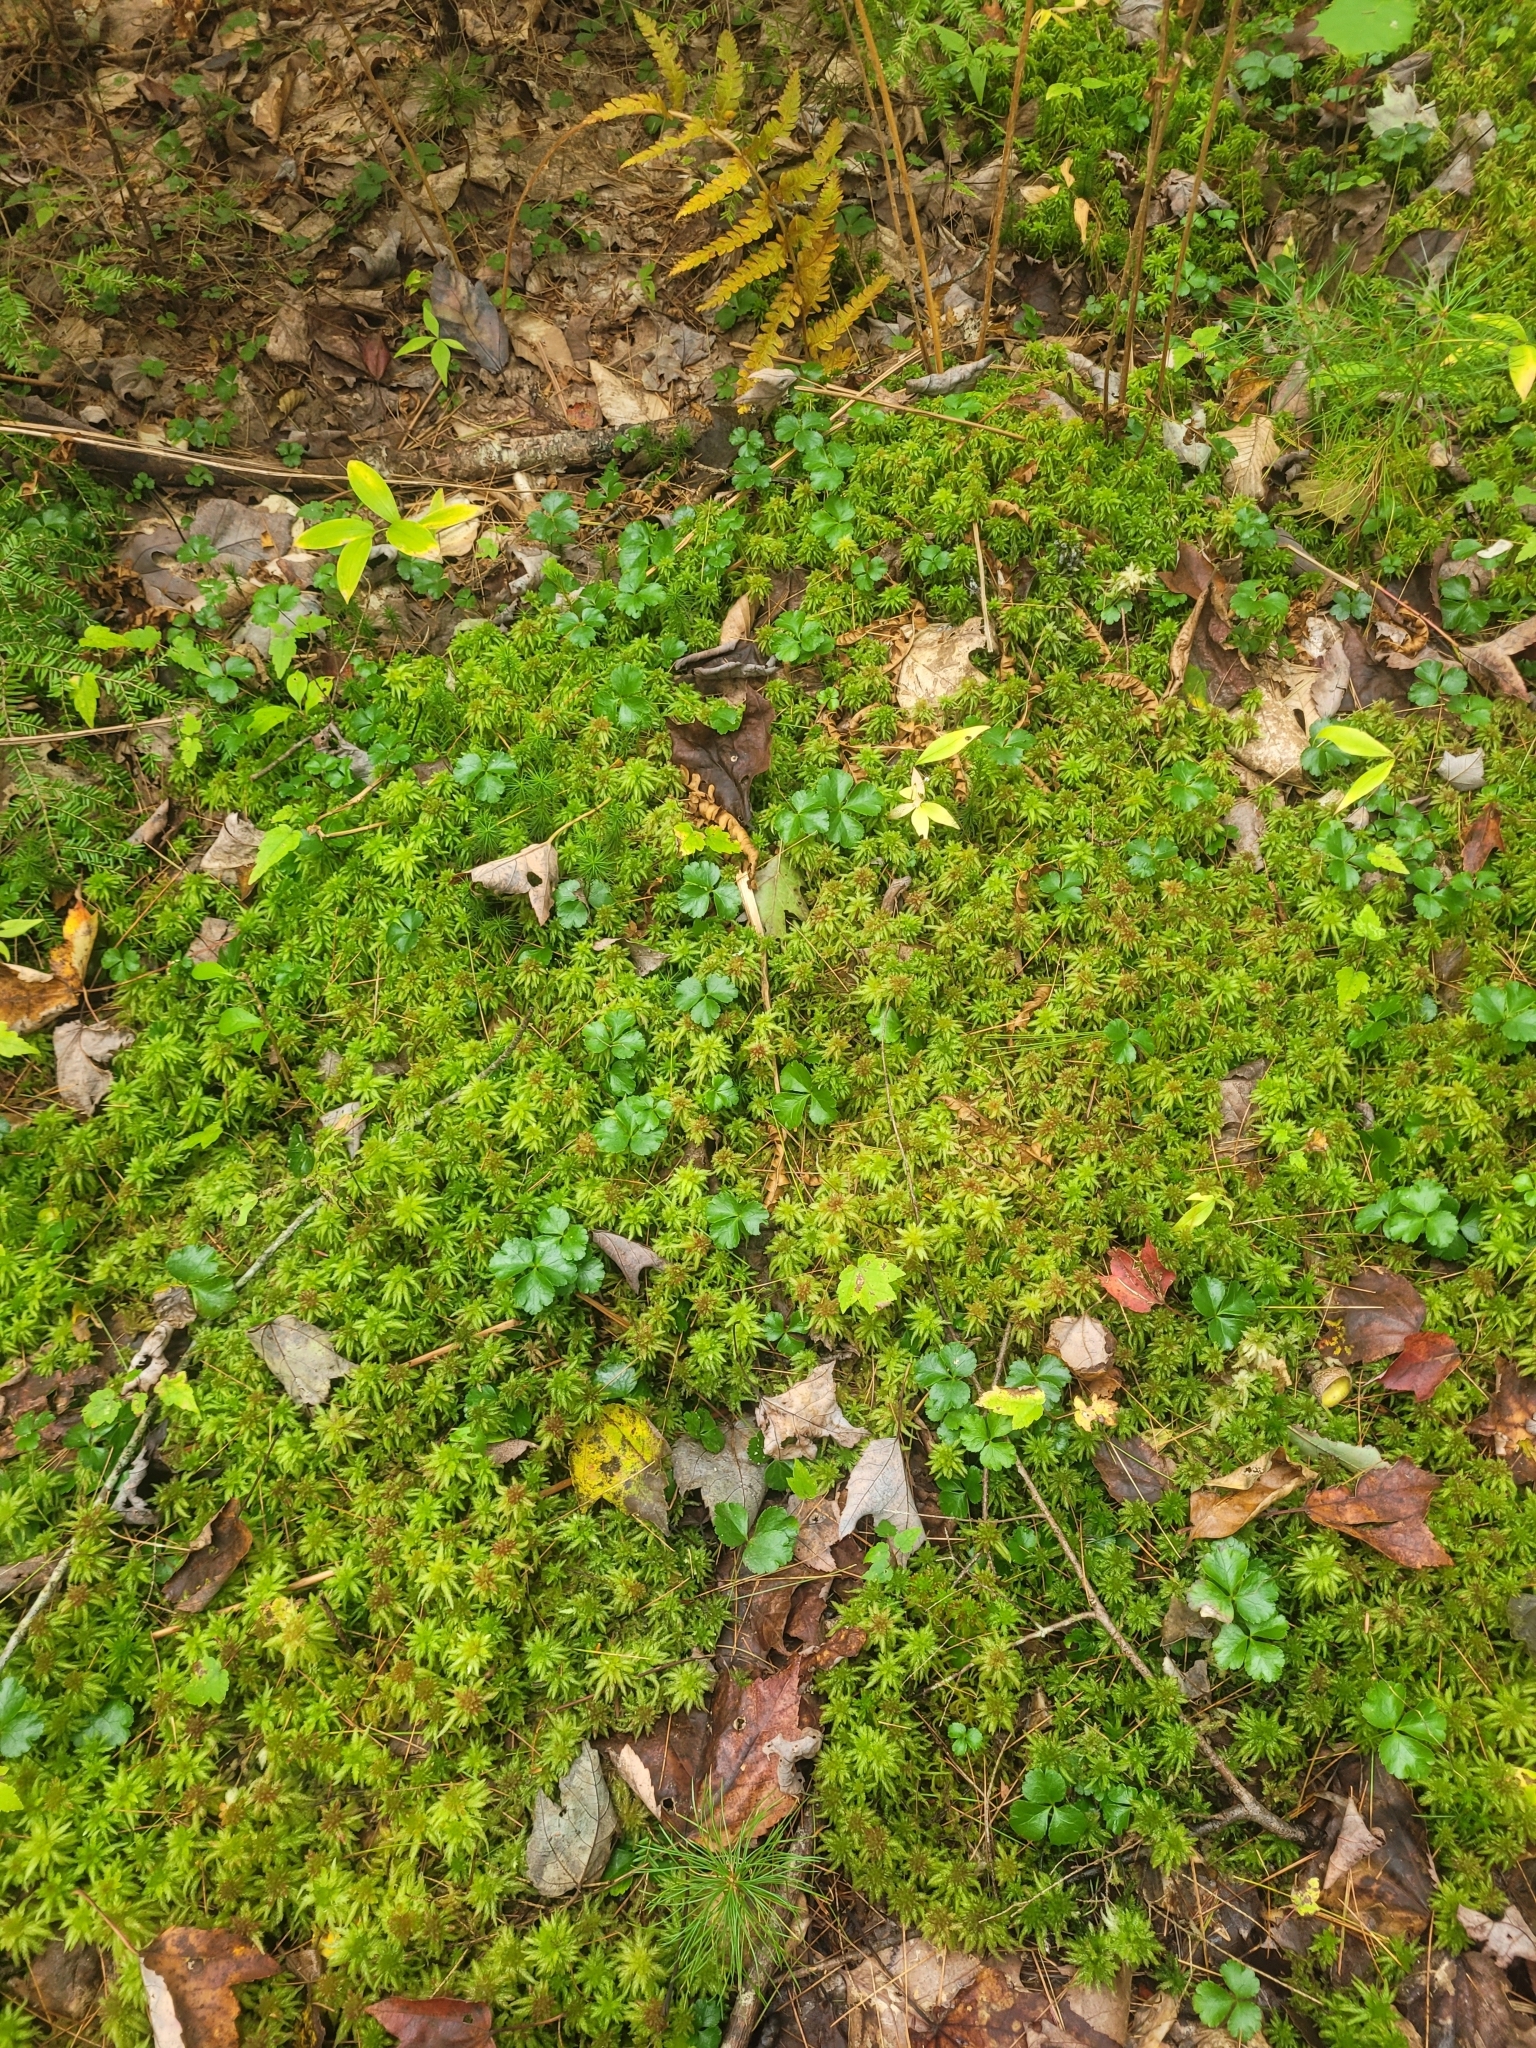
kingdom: Plantae
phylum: Tracheophyta
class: Magnoliopsida
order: Ranunculales
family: Ranunculaceae
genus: Coptis
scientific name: Coptis trifolia
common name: Canker-root
